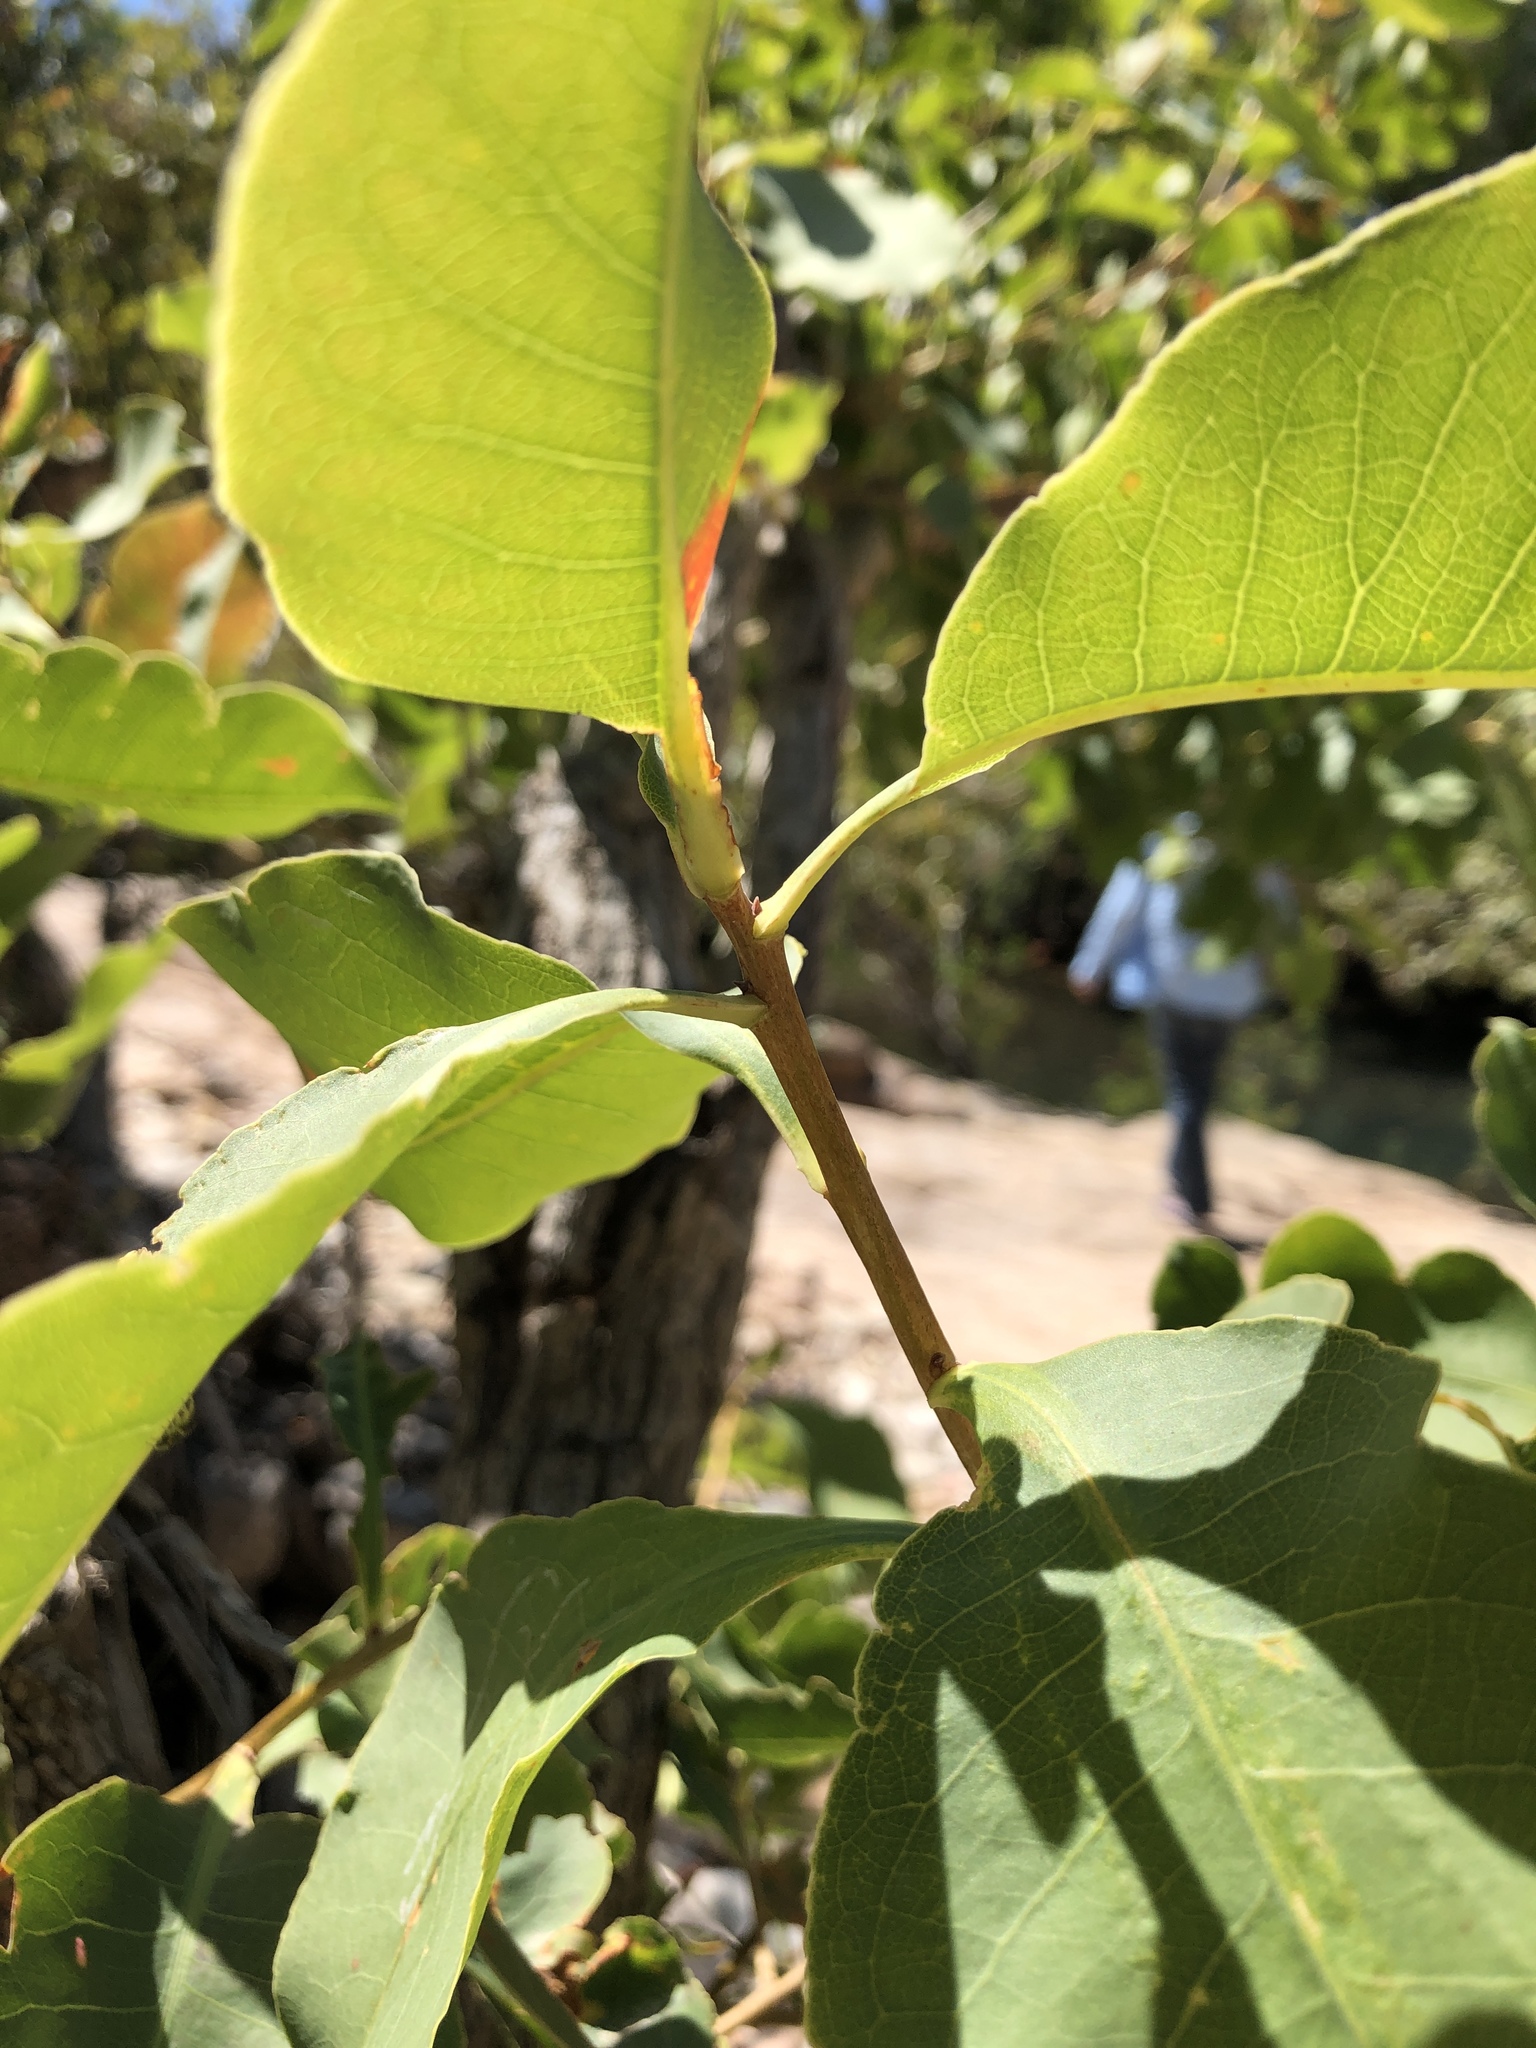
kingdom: Plantae
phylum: Tracheophyta
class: Magnoliopsida
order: Ericales
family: Lecythidaceae
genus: Planchonia
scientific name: Planchonia careya
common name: Cockatoo-apple
